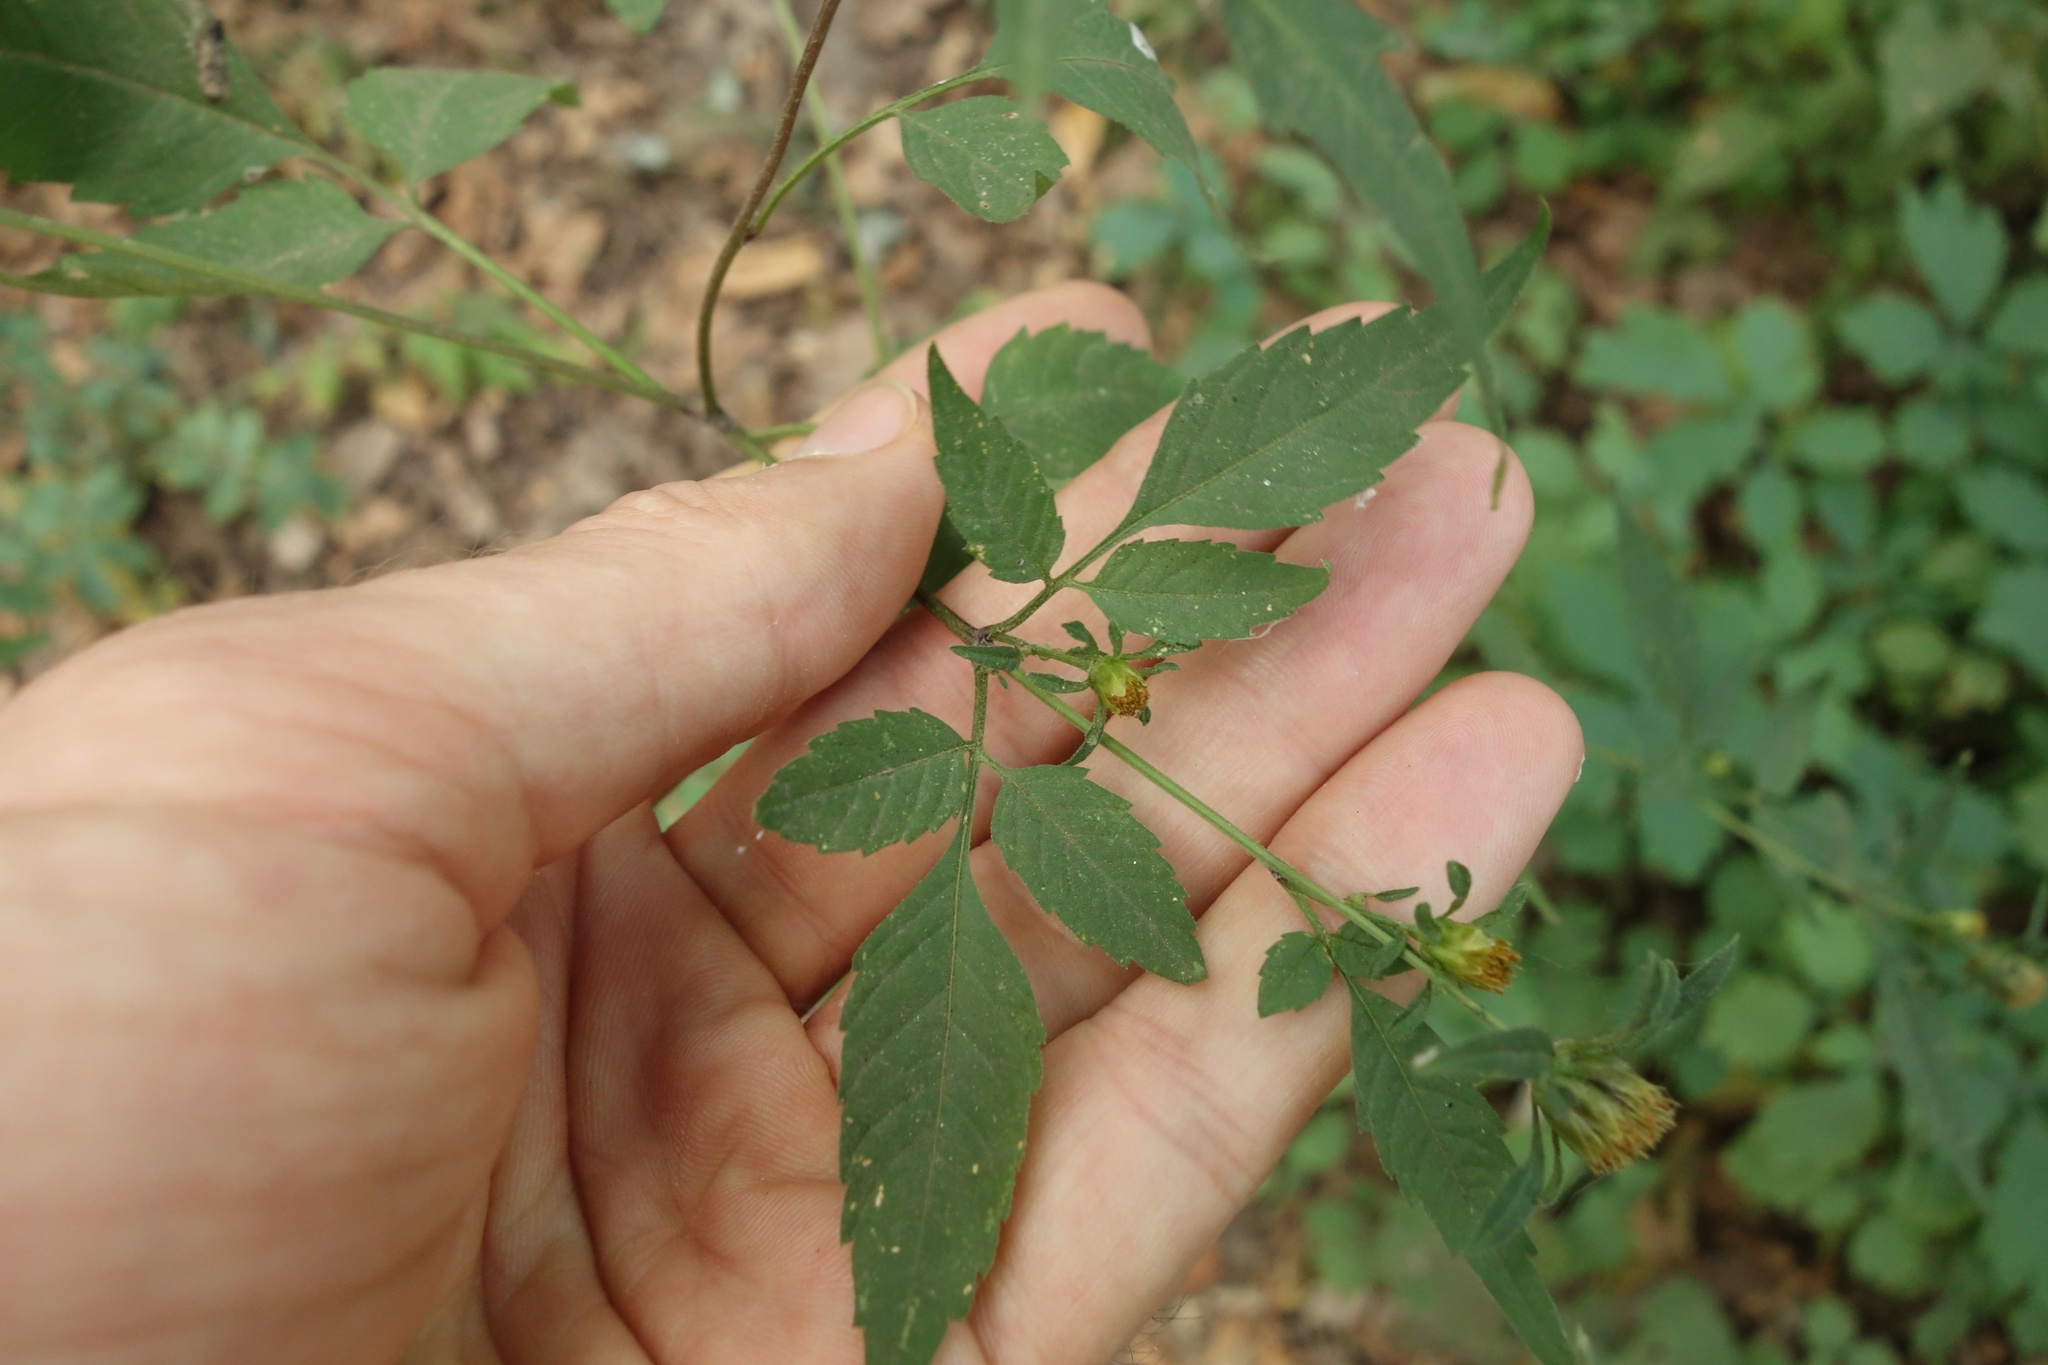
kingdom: Plantae
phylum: Tracheophyta
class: Magnoliopsida
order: Asterales
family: Asteraceae
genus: Bidens
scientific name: Bidens frondosa
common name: Beggarticks
